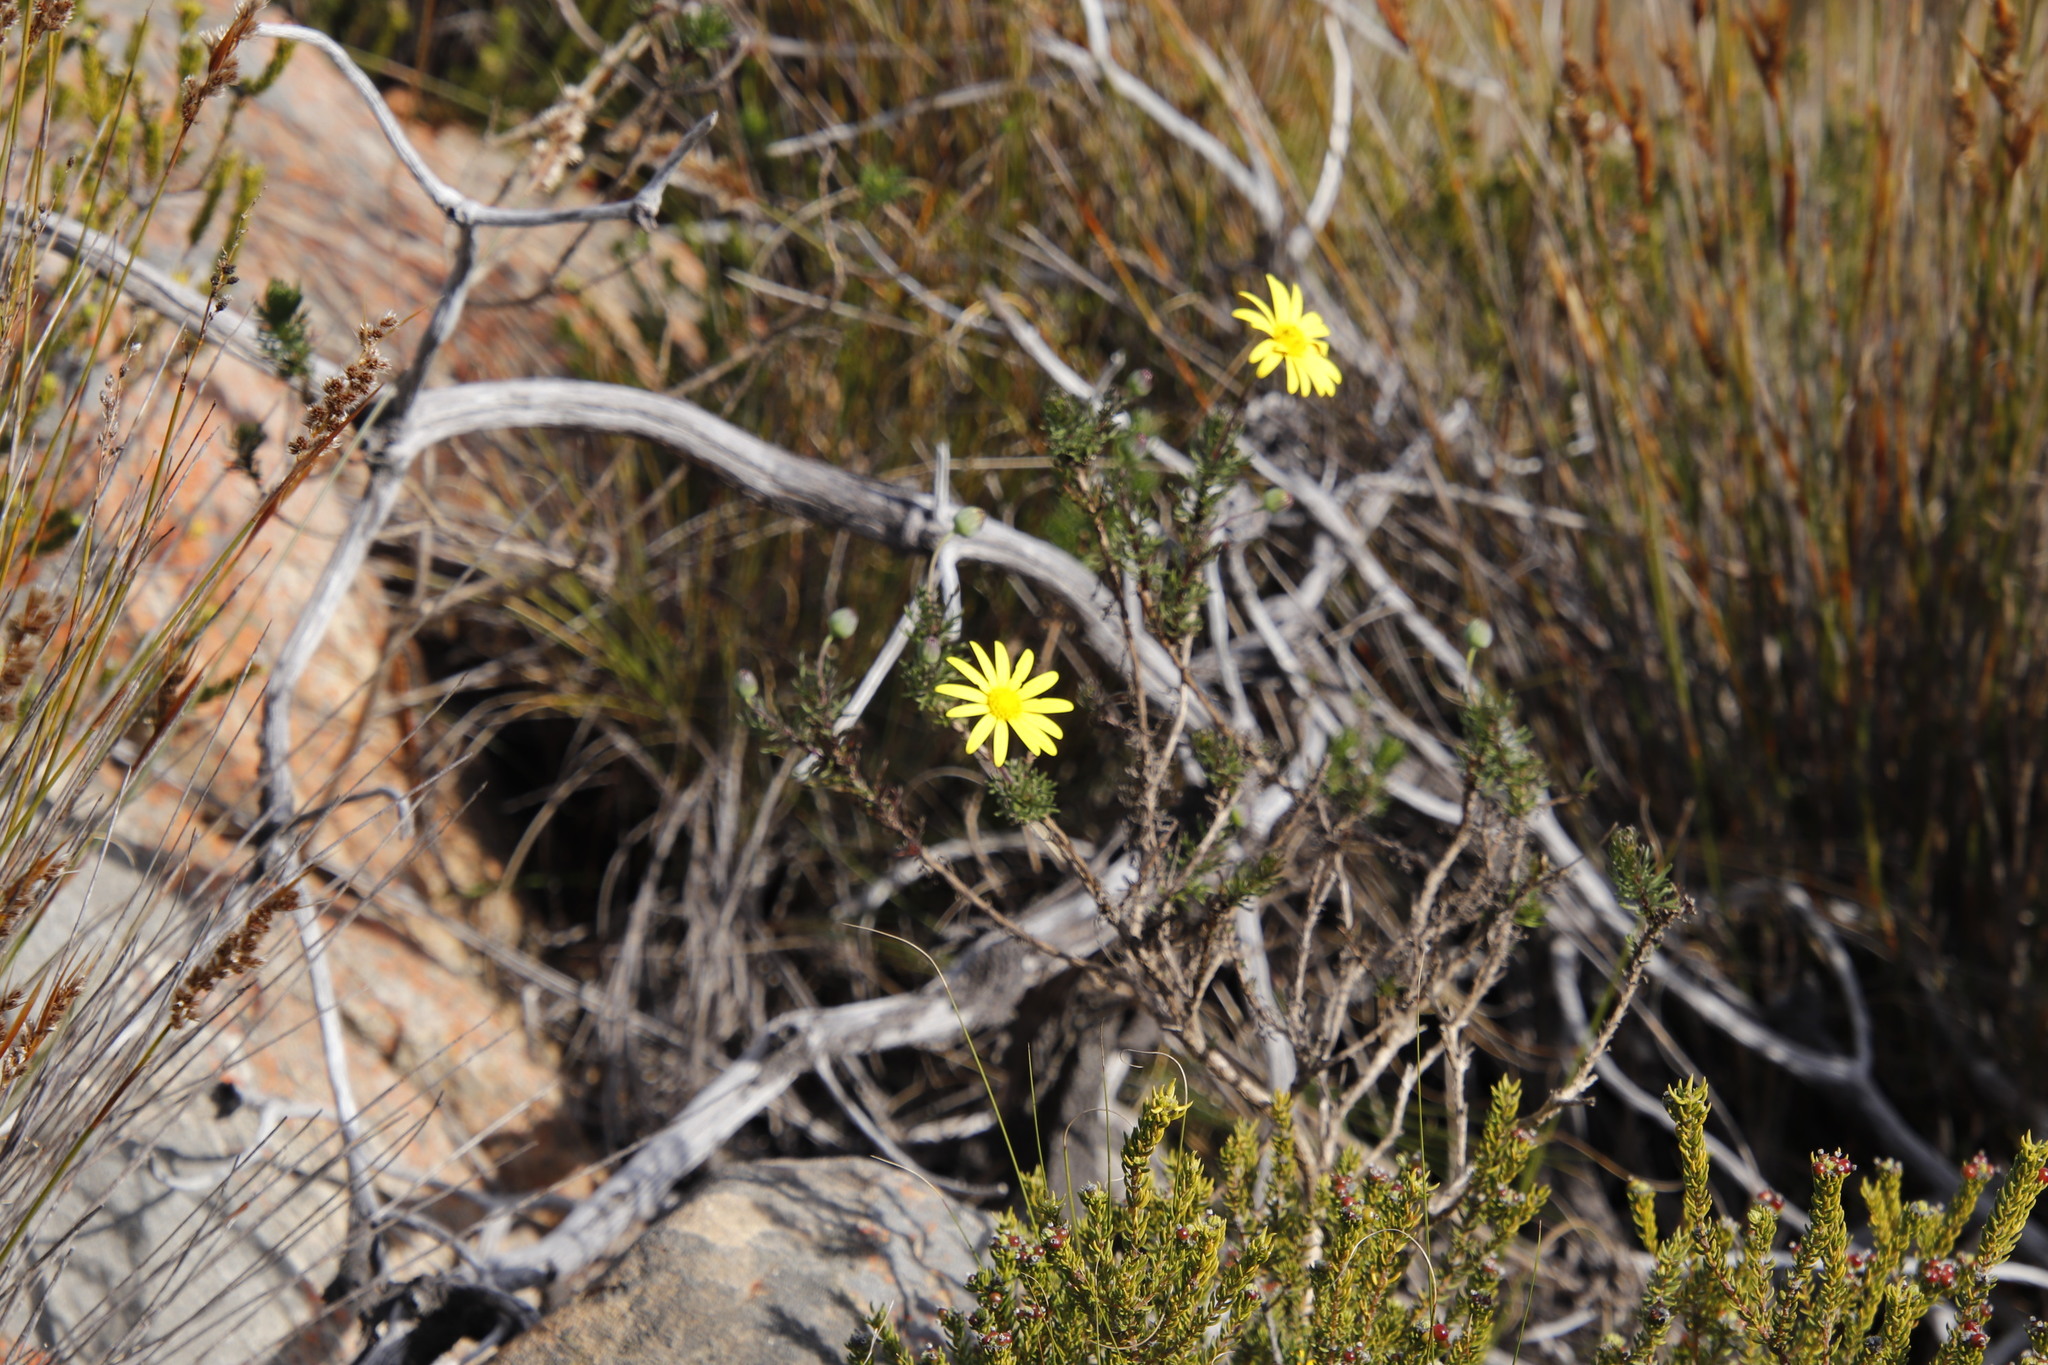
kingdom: Plantae
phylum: Tracheophyta
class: Magnoliopsida
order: Asterales
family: Asteraceae
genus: Euryops
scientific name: Euryops abrotanifolius
